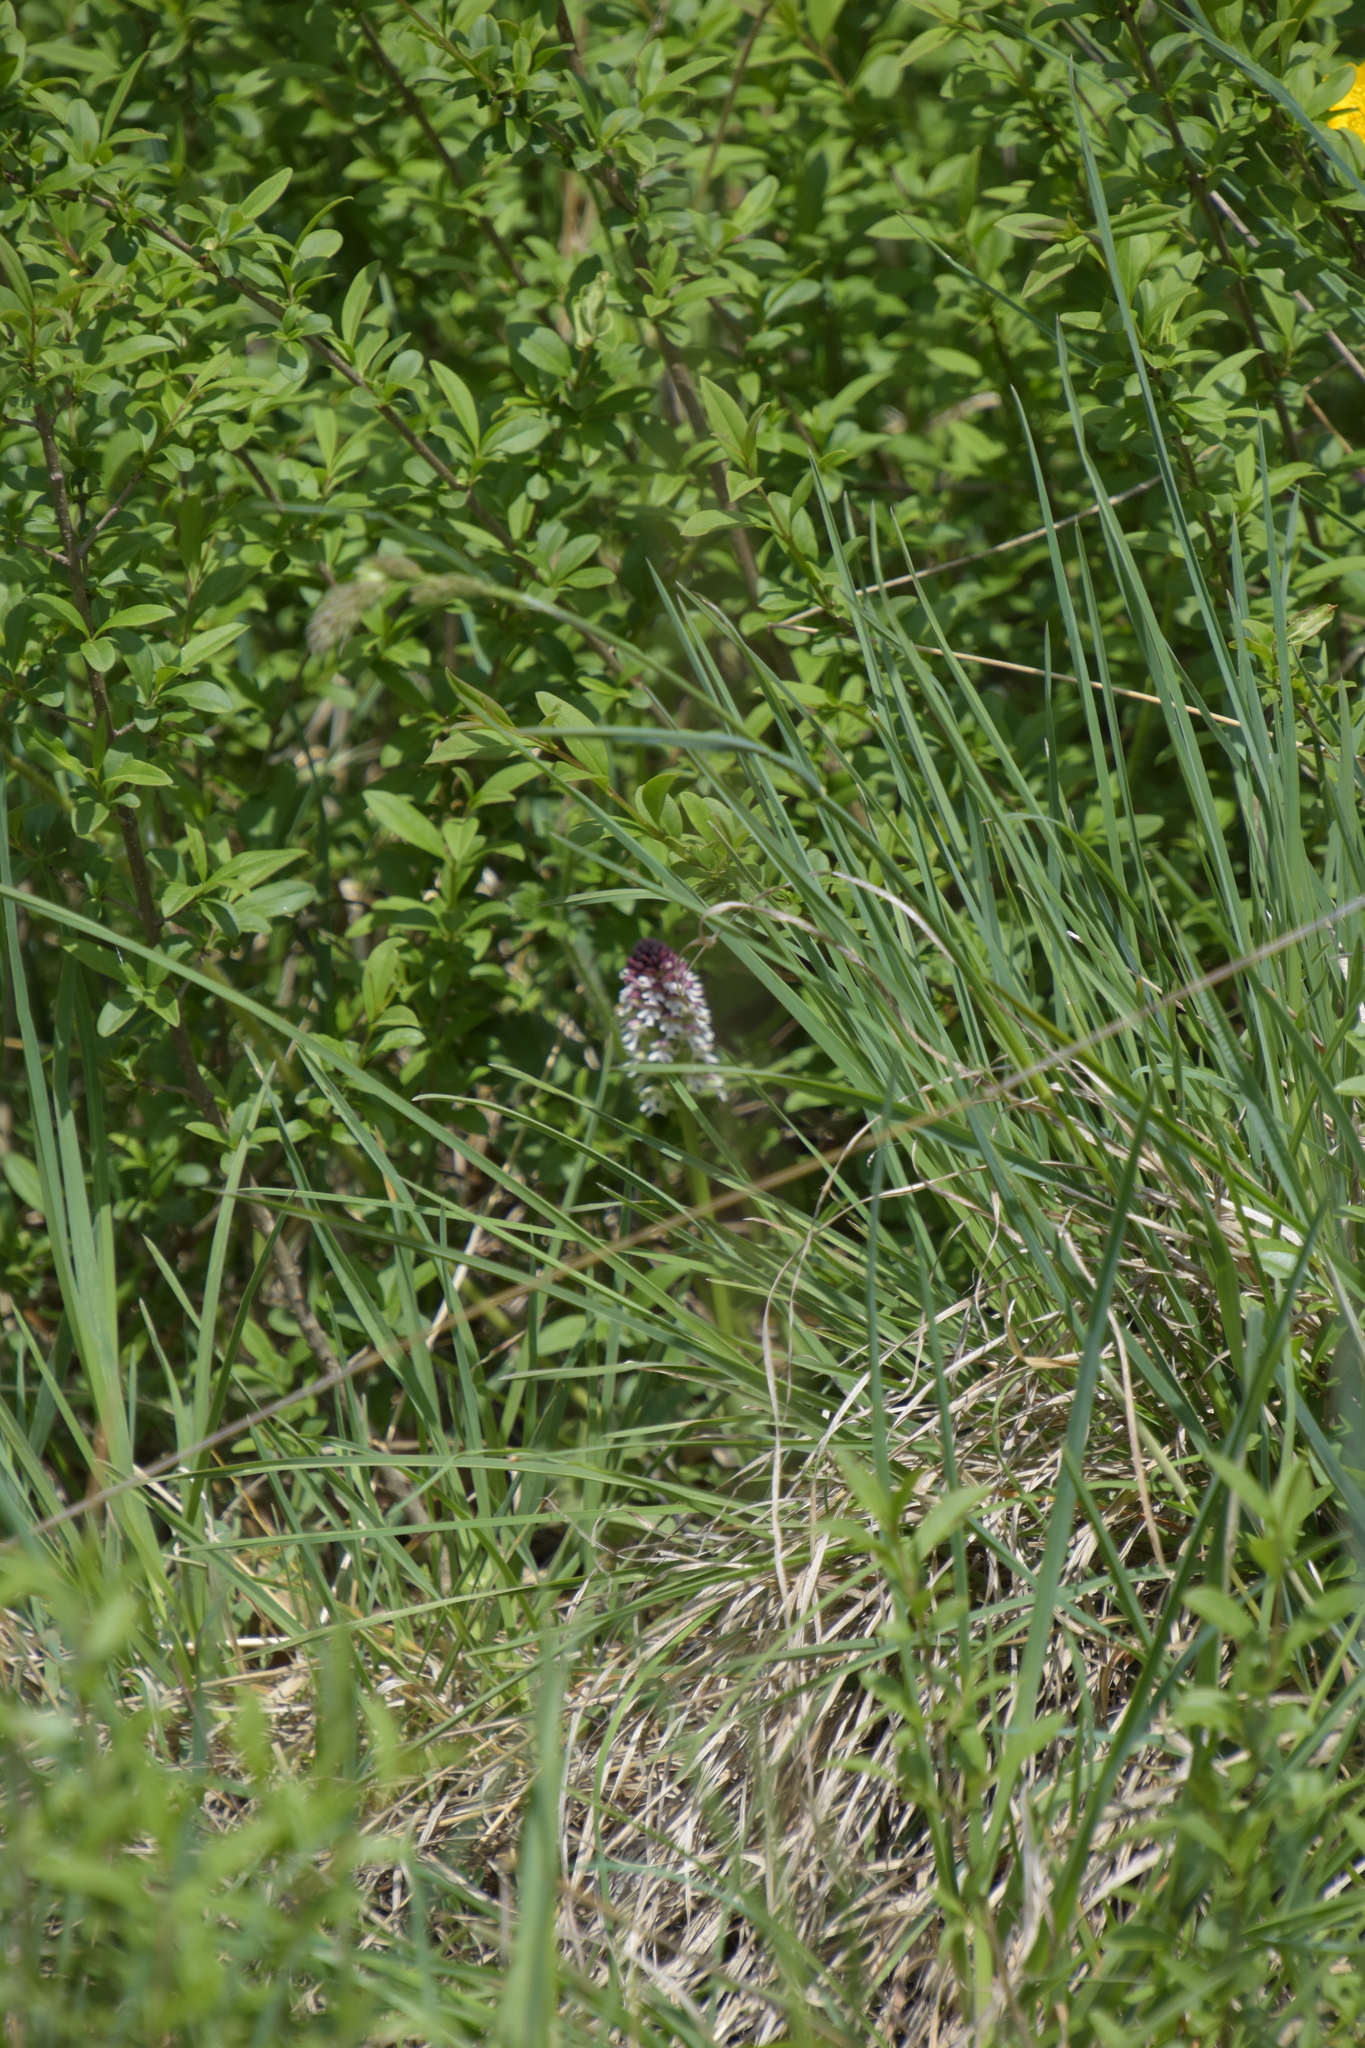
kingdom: Plantae
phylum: Tracheophyta
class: Liliopsida
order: Asparagales
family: Orchidaceae
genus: Neotinea
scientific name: Neotinea ustulata
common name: Burnt orchid
